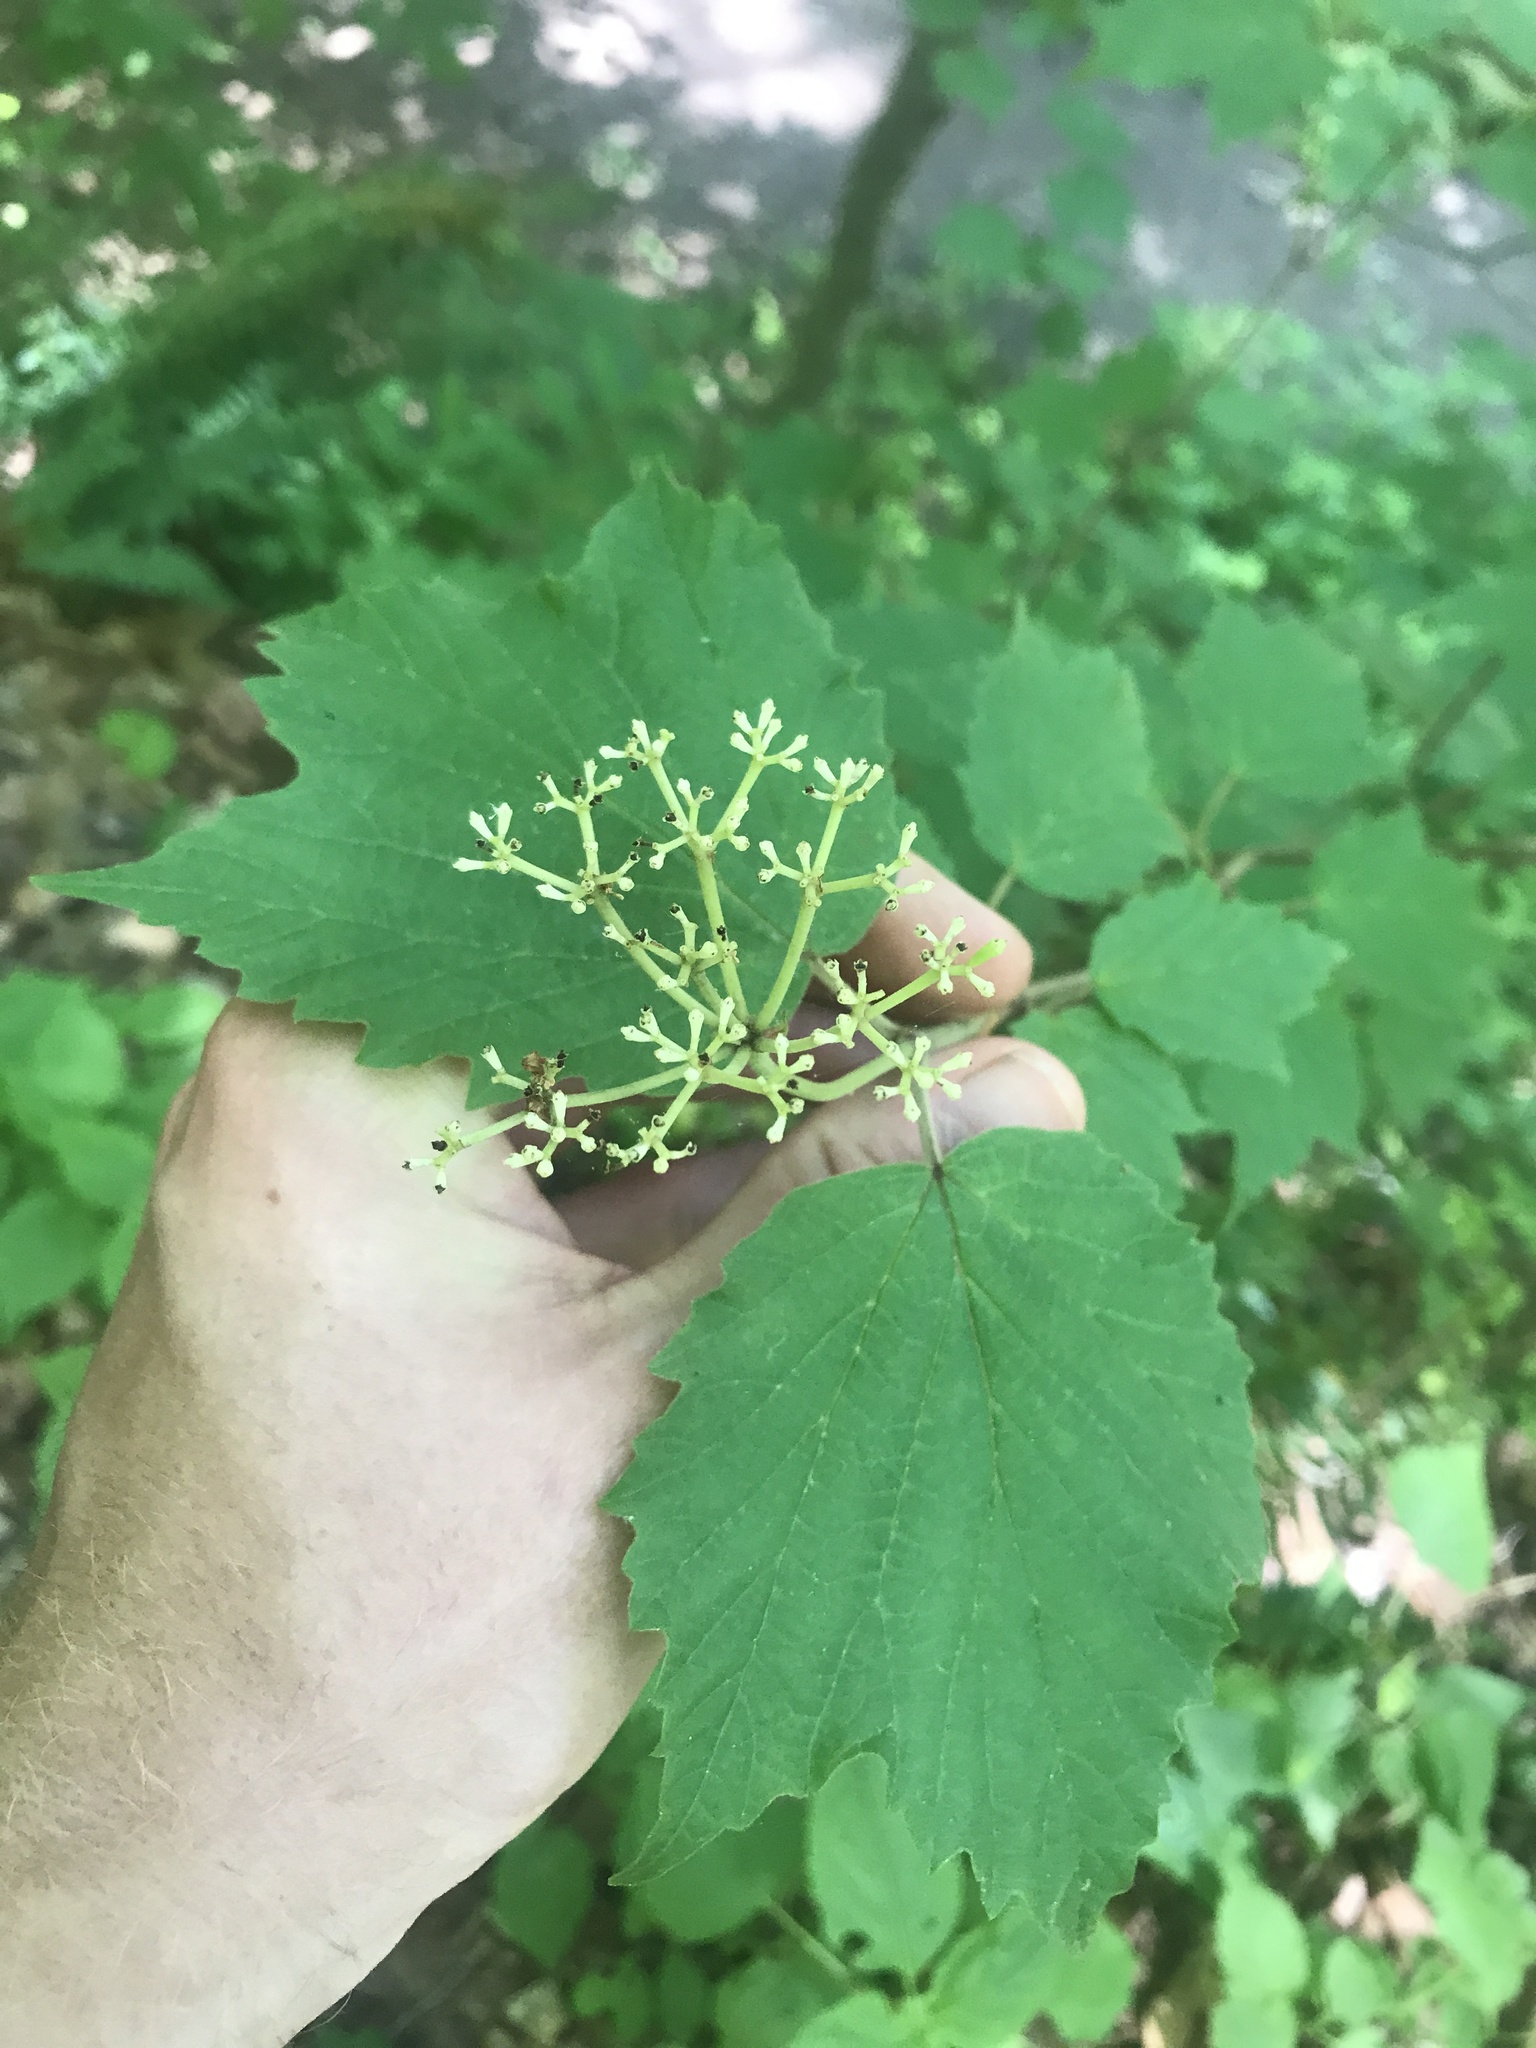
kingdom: Plantae
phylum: Tracheophyta
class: Magnoliopsida
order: Dipsacales
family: Viburnaceae
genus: Viburnum
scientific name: Viburnum acerifolium
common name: Dockmackie
